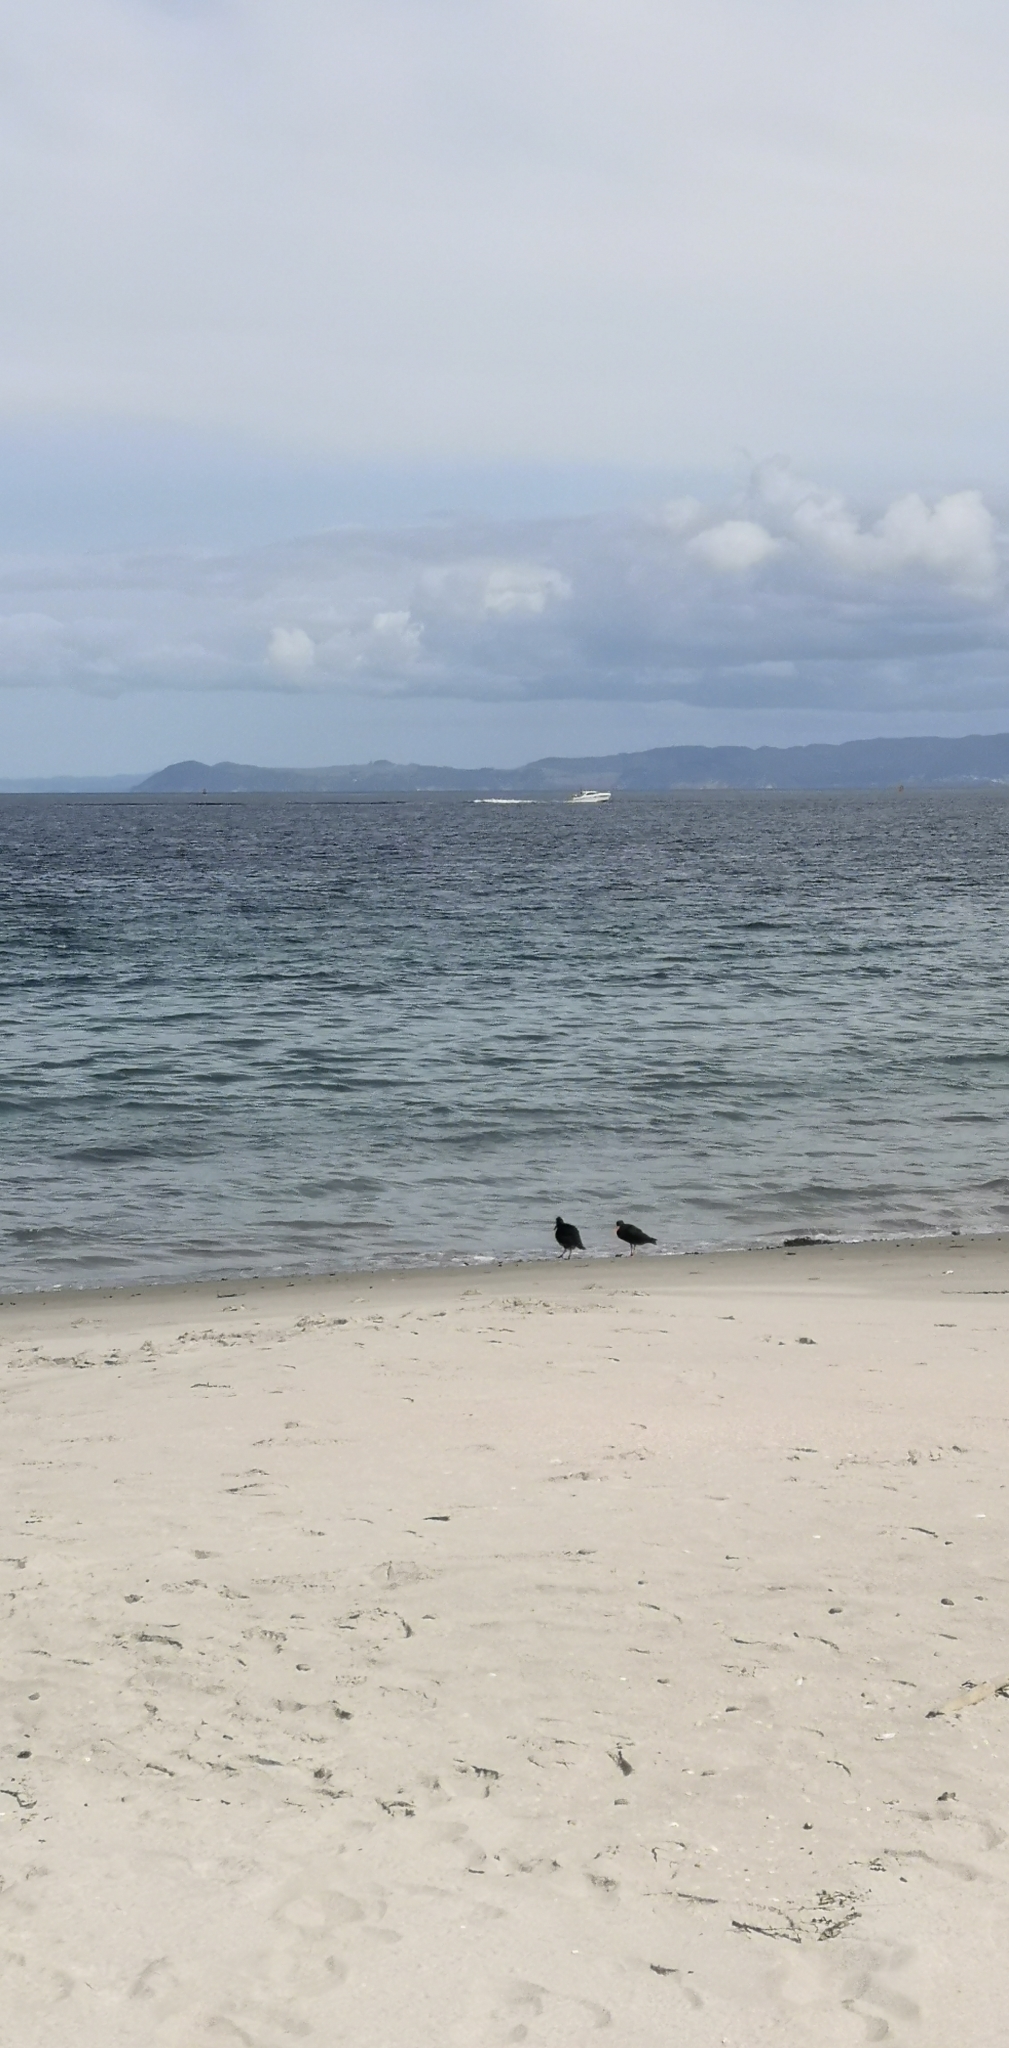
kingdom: Animalia
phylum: Chordata
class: Aves
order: Charadriiformes
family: Haematopodidae
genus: Haematopus
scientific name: Haematopus unicolor
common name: Variable oystercatcher
